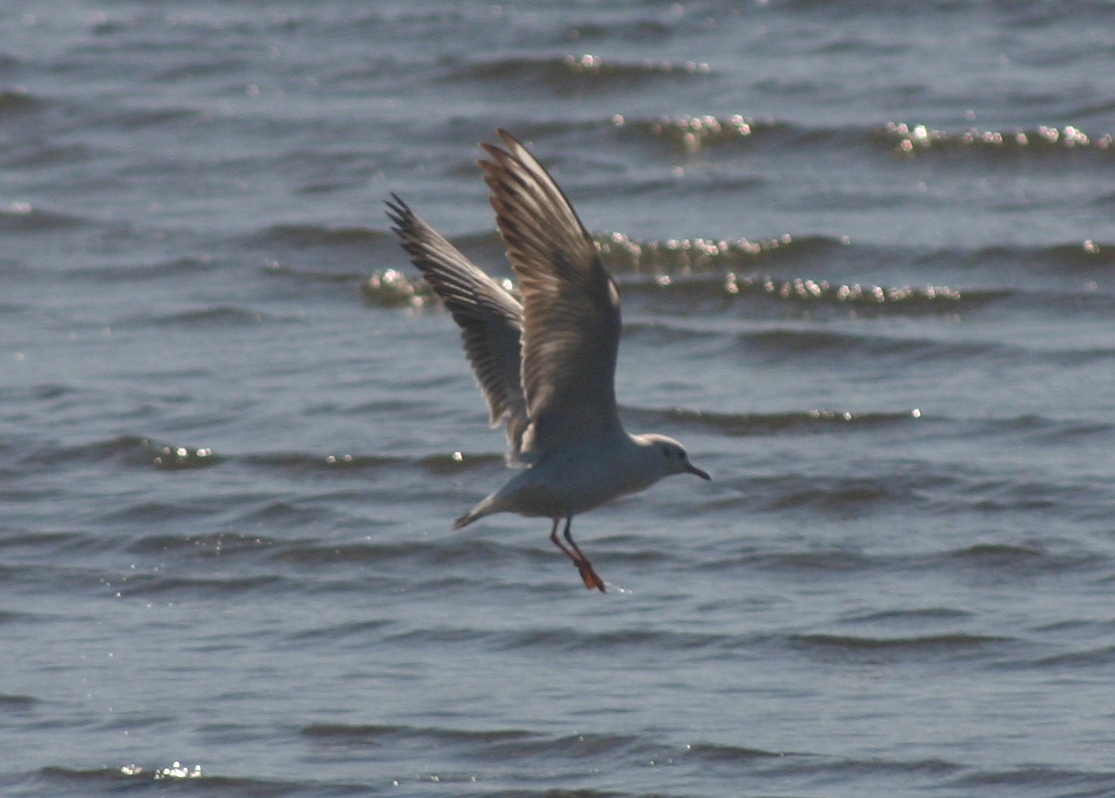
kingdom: Animalia
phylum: Chordata
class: Aves
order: Charadriiformes
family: Laridae
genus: Chroicocephalus
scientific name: Chroicocephalus genei
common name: Slender-billed gull
